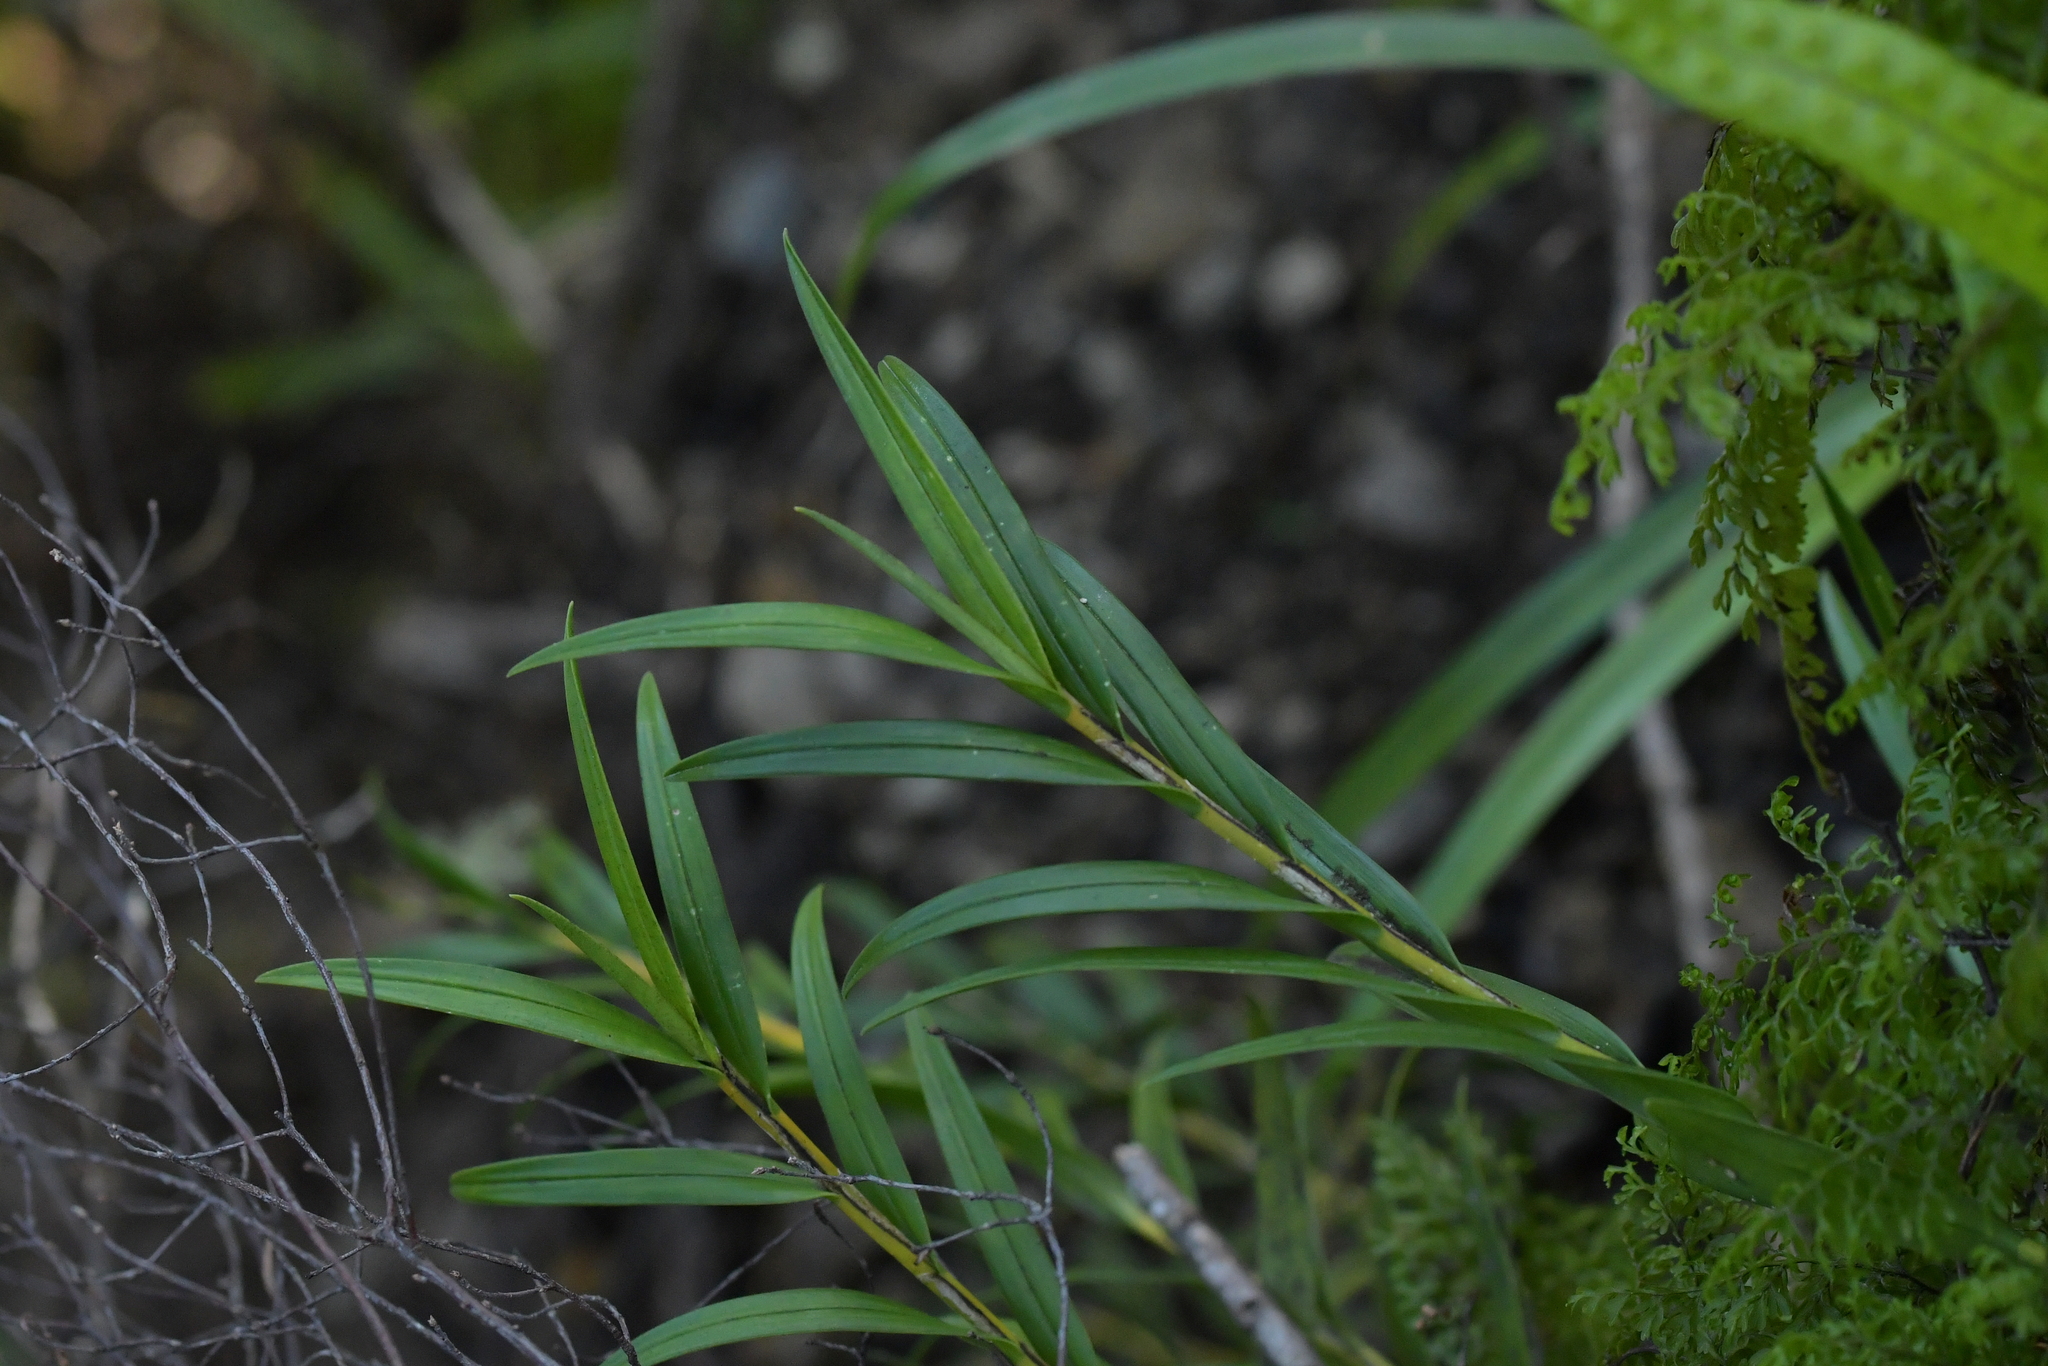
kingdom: Plantae
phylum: Tracheophyta
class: Liliopsida
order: Asparagales
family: Orchidaceae
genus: Earina
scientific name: Earina autumnalis
